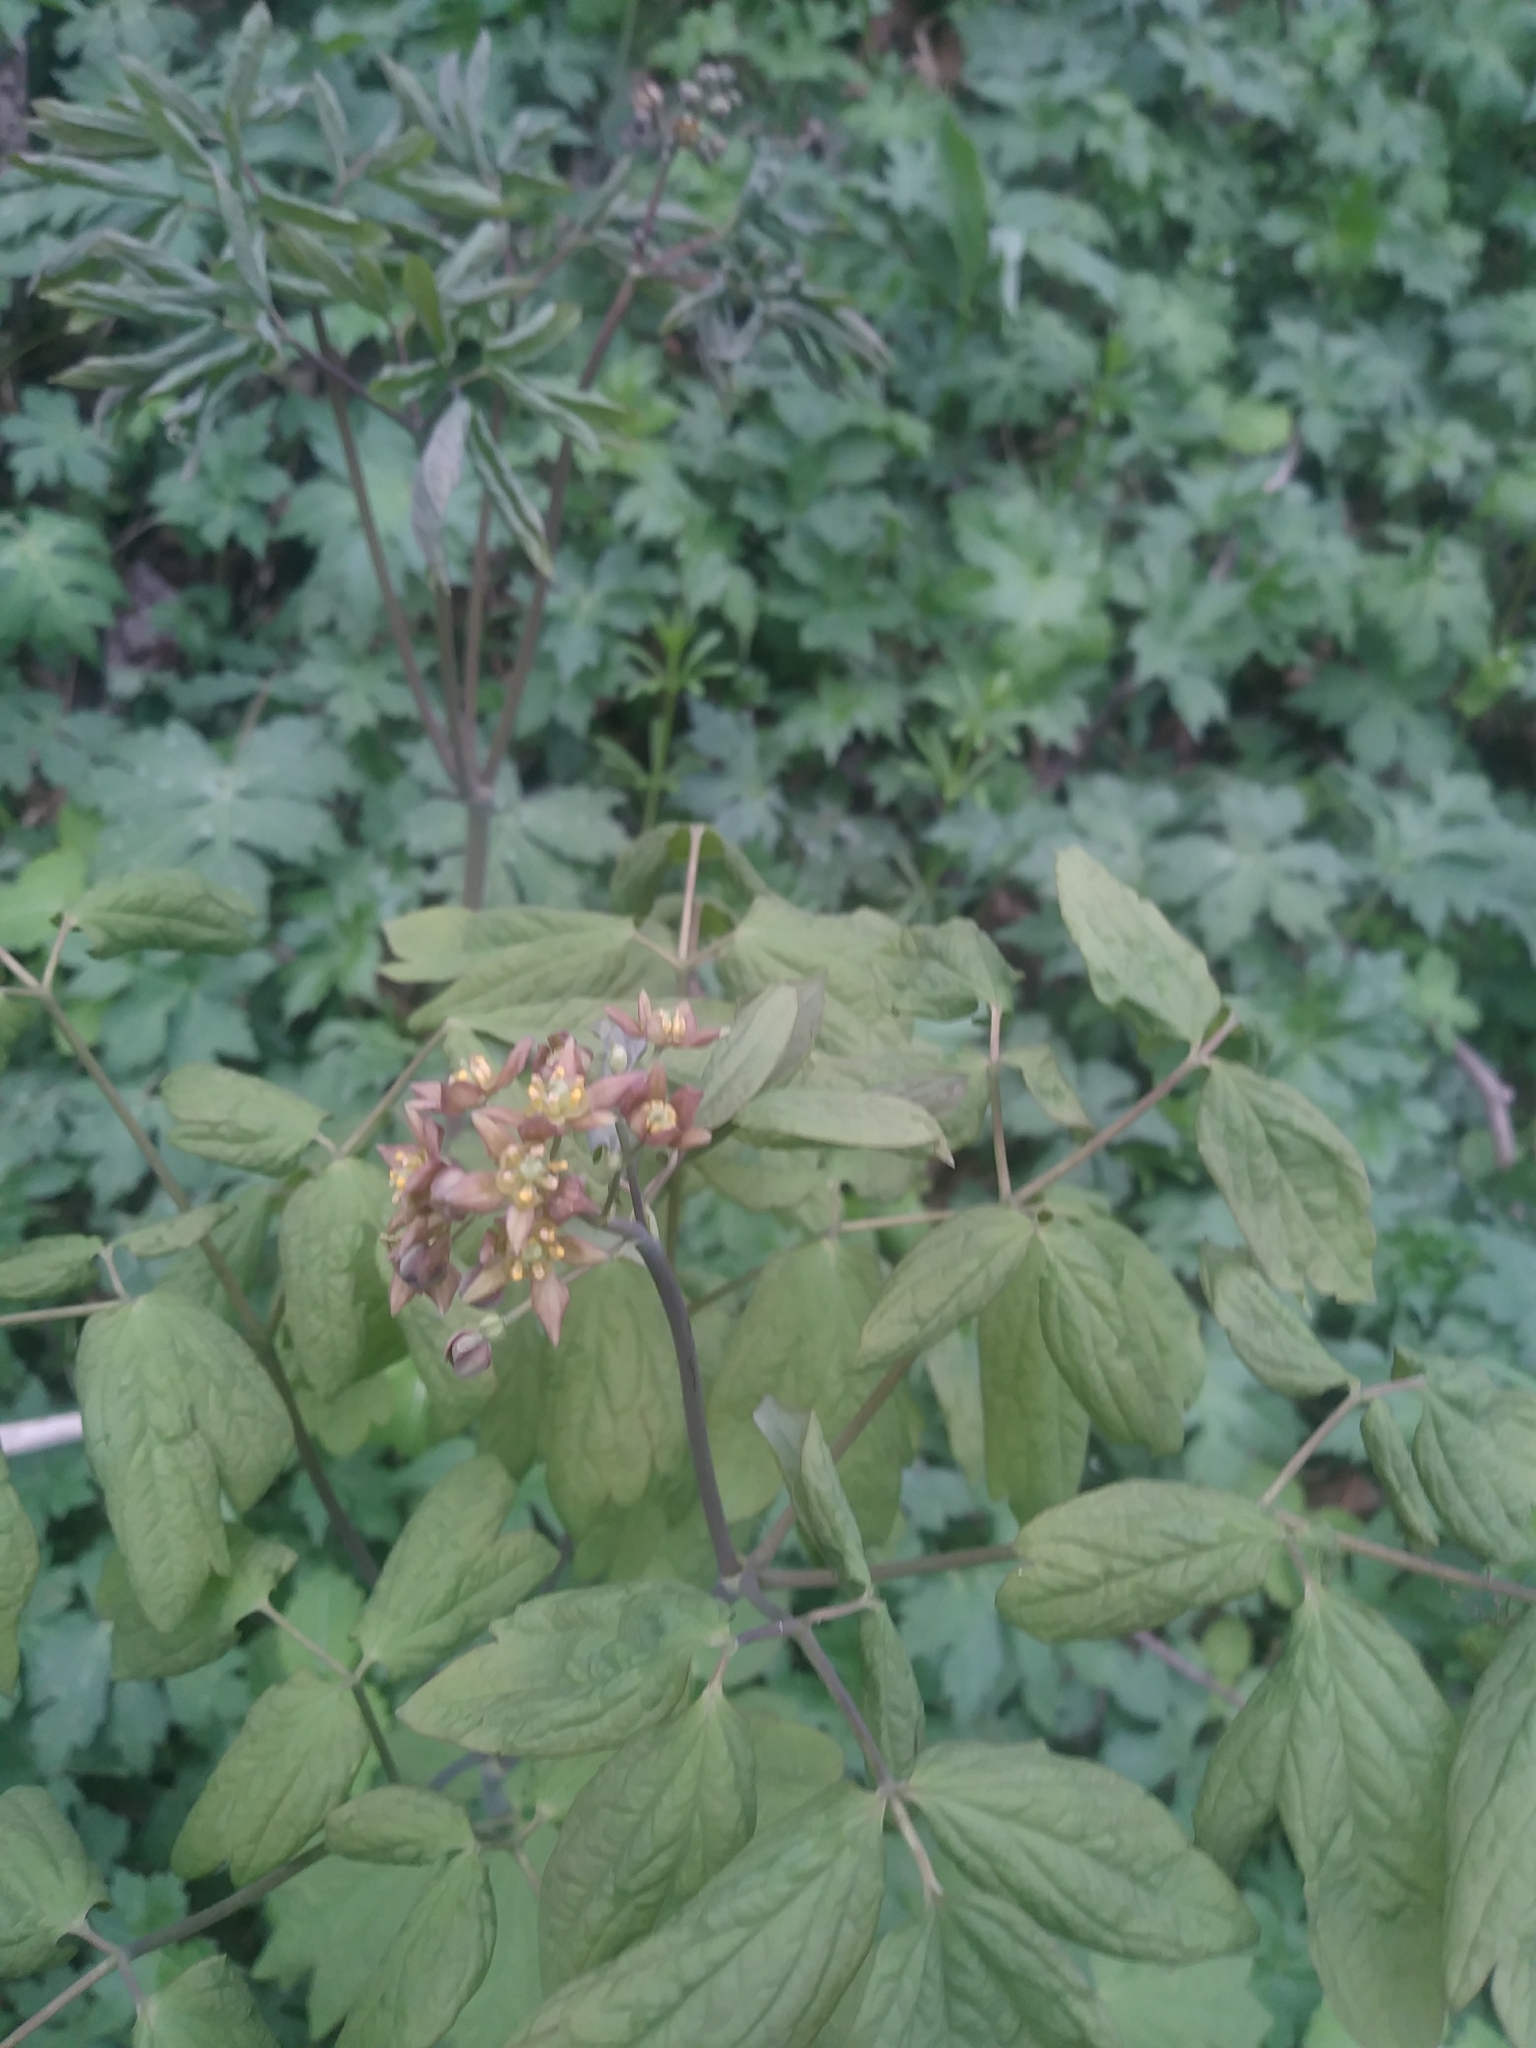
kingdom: Plantae
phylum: Tracheophyta
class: Magnoliopsida
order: Ranunculales
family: Berberidaceae
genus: Caulophyllum
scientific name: Caulophyllum thalictroides
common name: Blue cohosh
